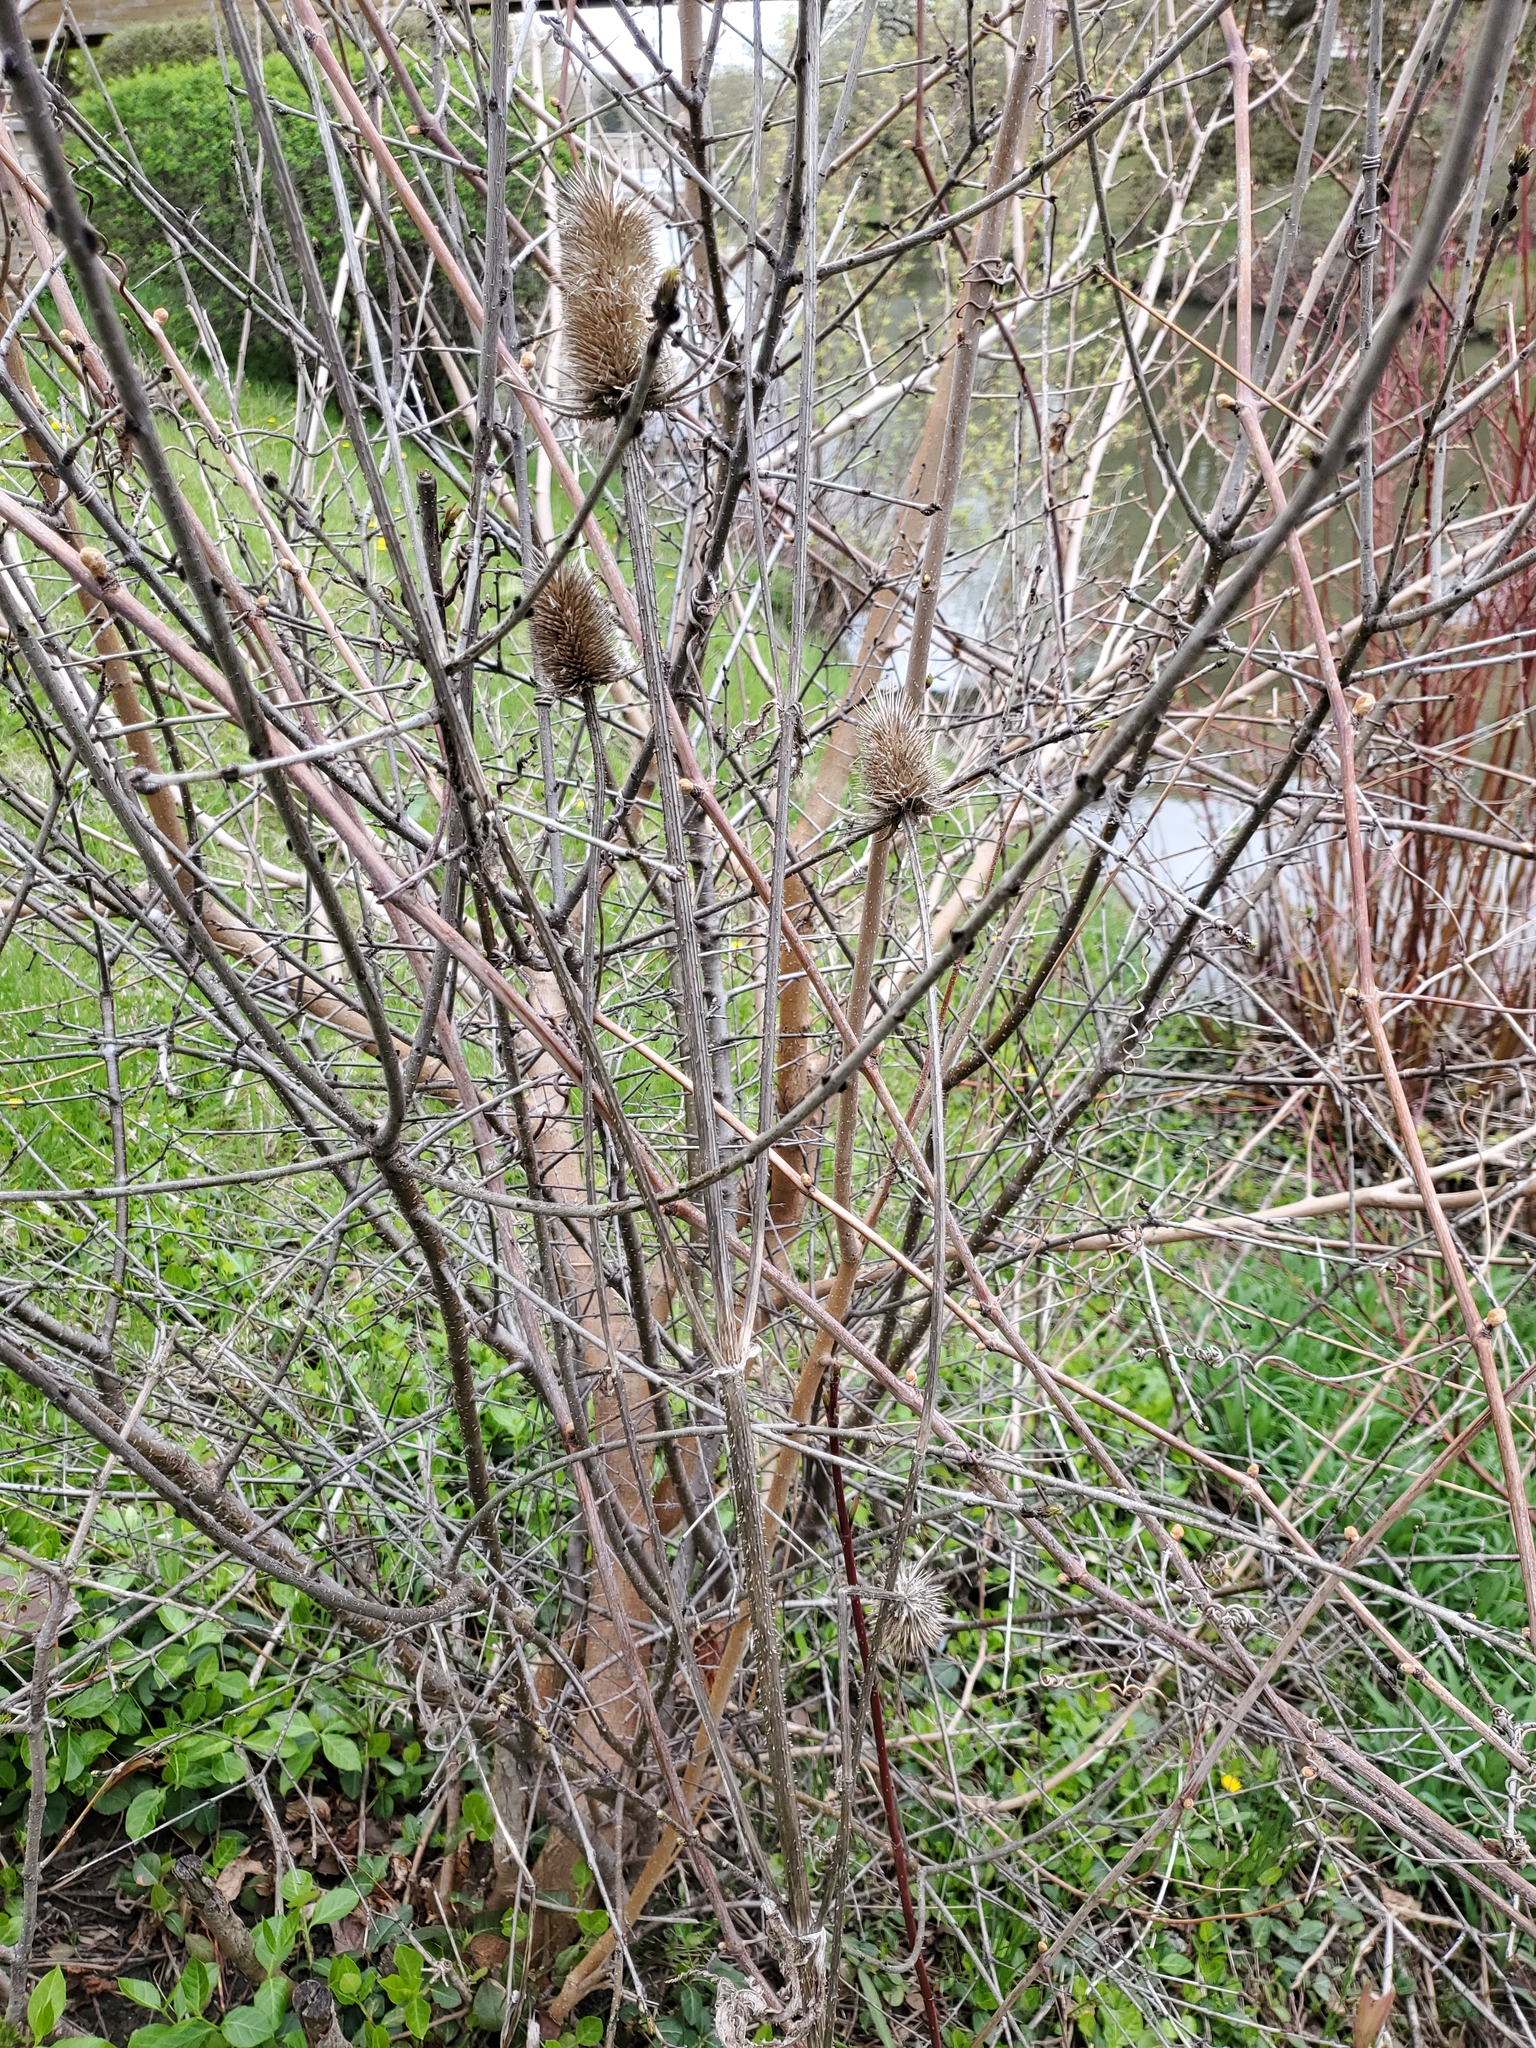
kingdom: Plantae
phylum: Tracheophyta
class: Magnoliopsida
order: Dipsacales
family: Caprifoliaceae
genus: Dipsacus
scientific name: Dipsacus laciniatus
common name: Cut-leaved teasel
